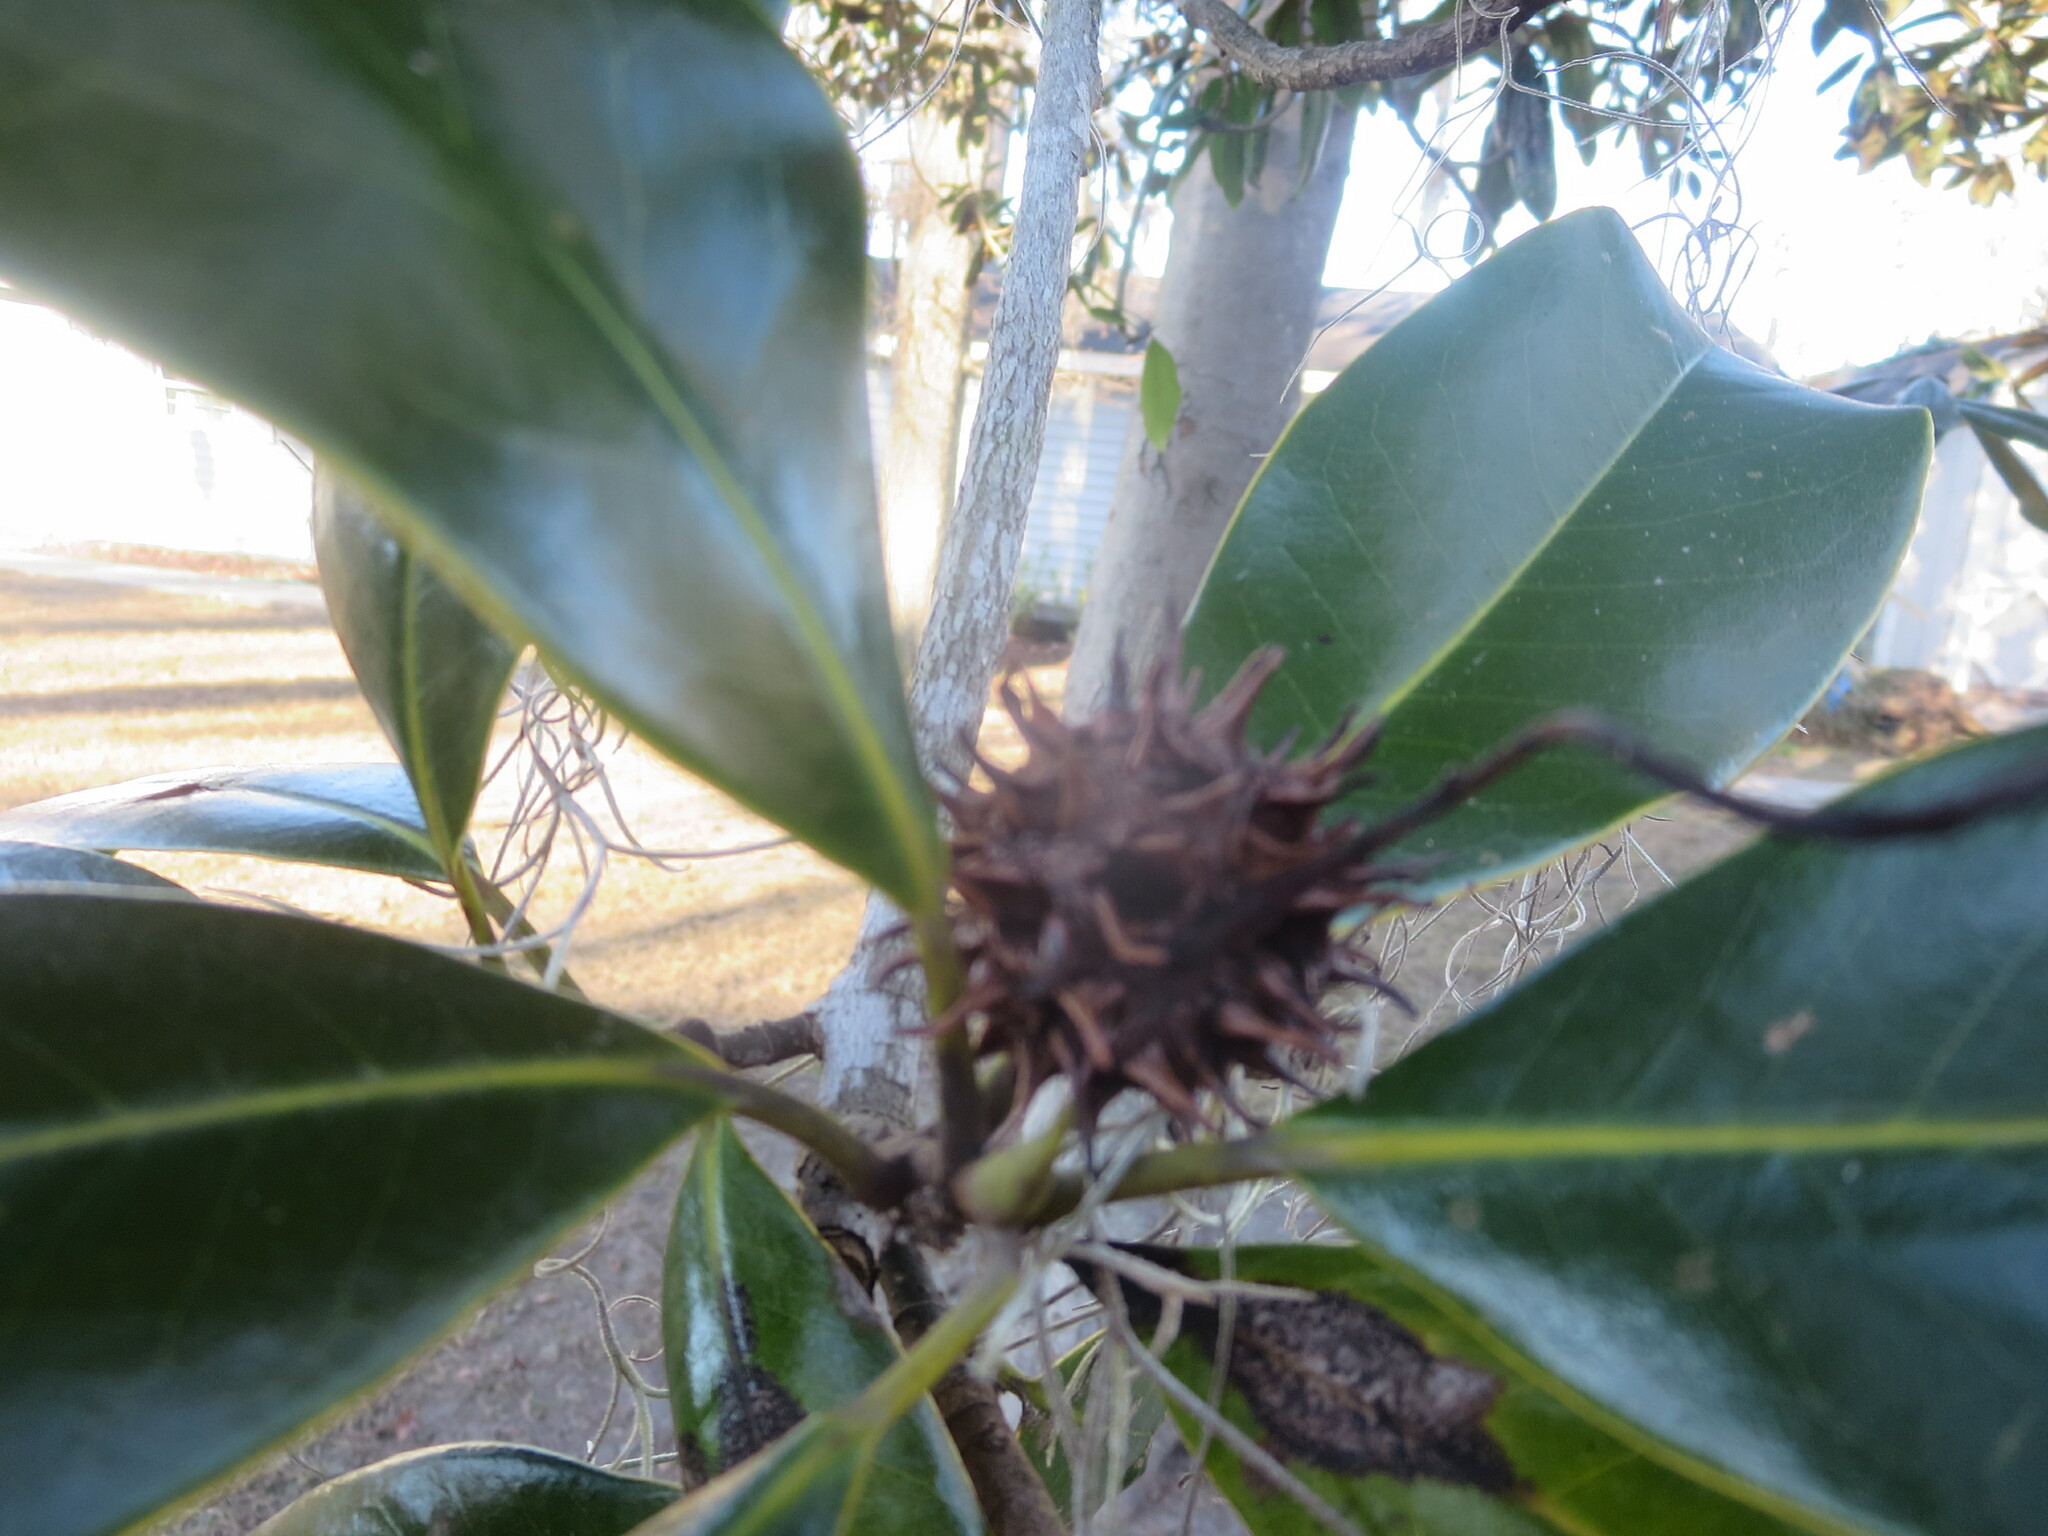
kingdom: Plantae
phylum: Tracheophyta
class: Magnoliopsida
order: Saxifragales
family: Altingiaceae
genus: Liquidambar
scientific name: Liquidambar styraciflua
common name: Sweet gum
